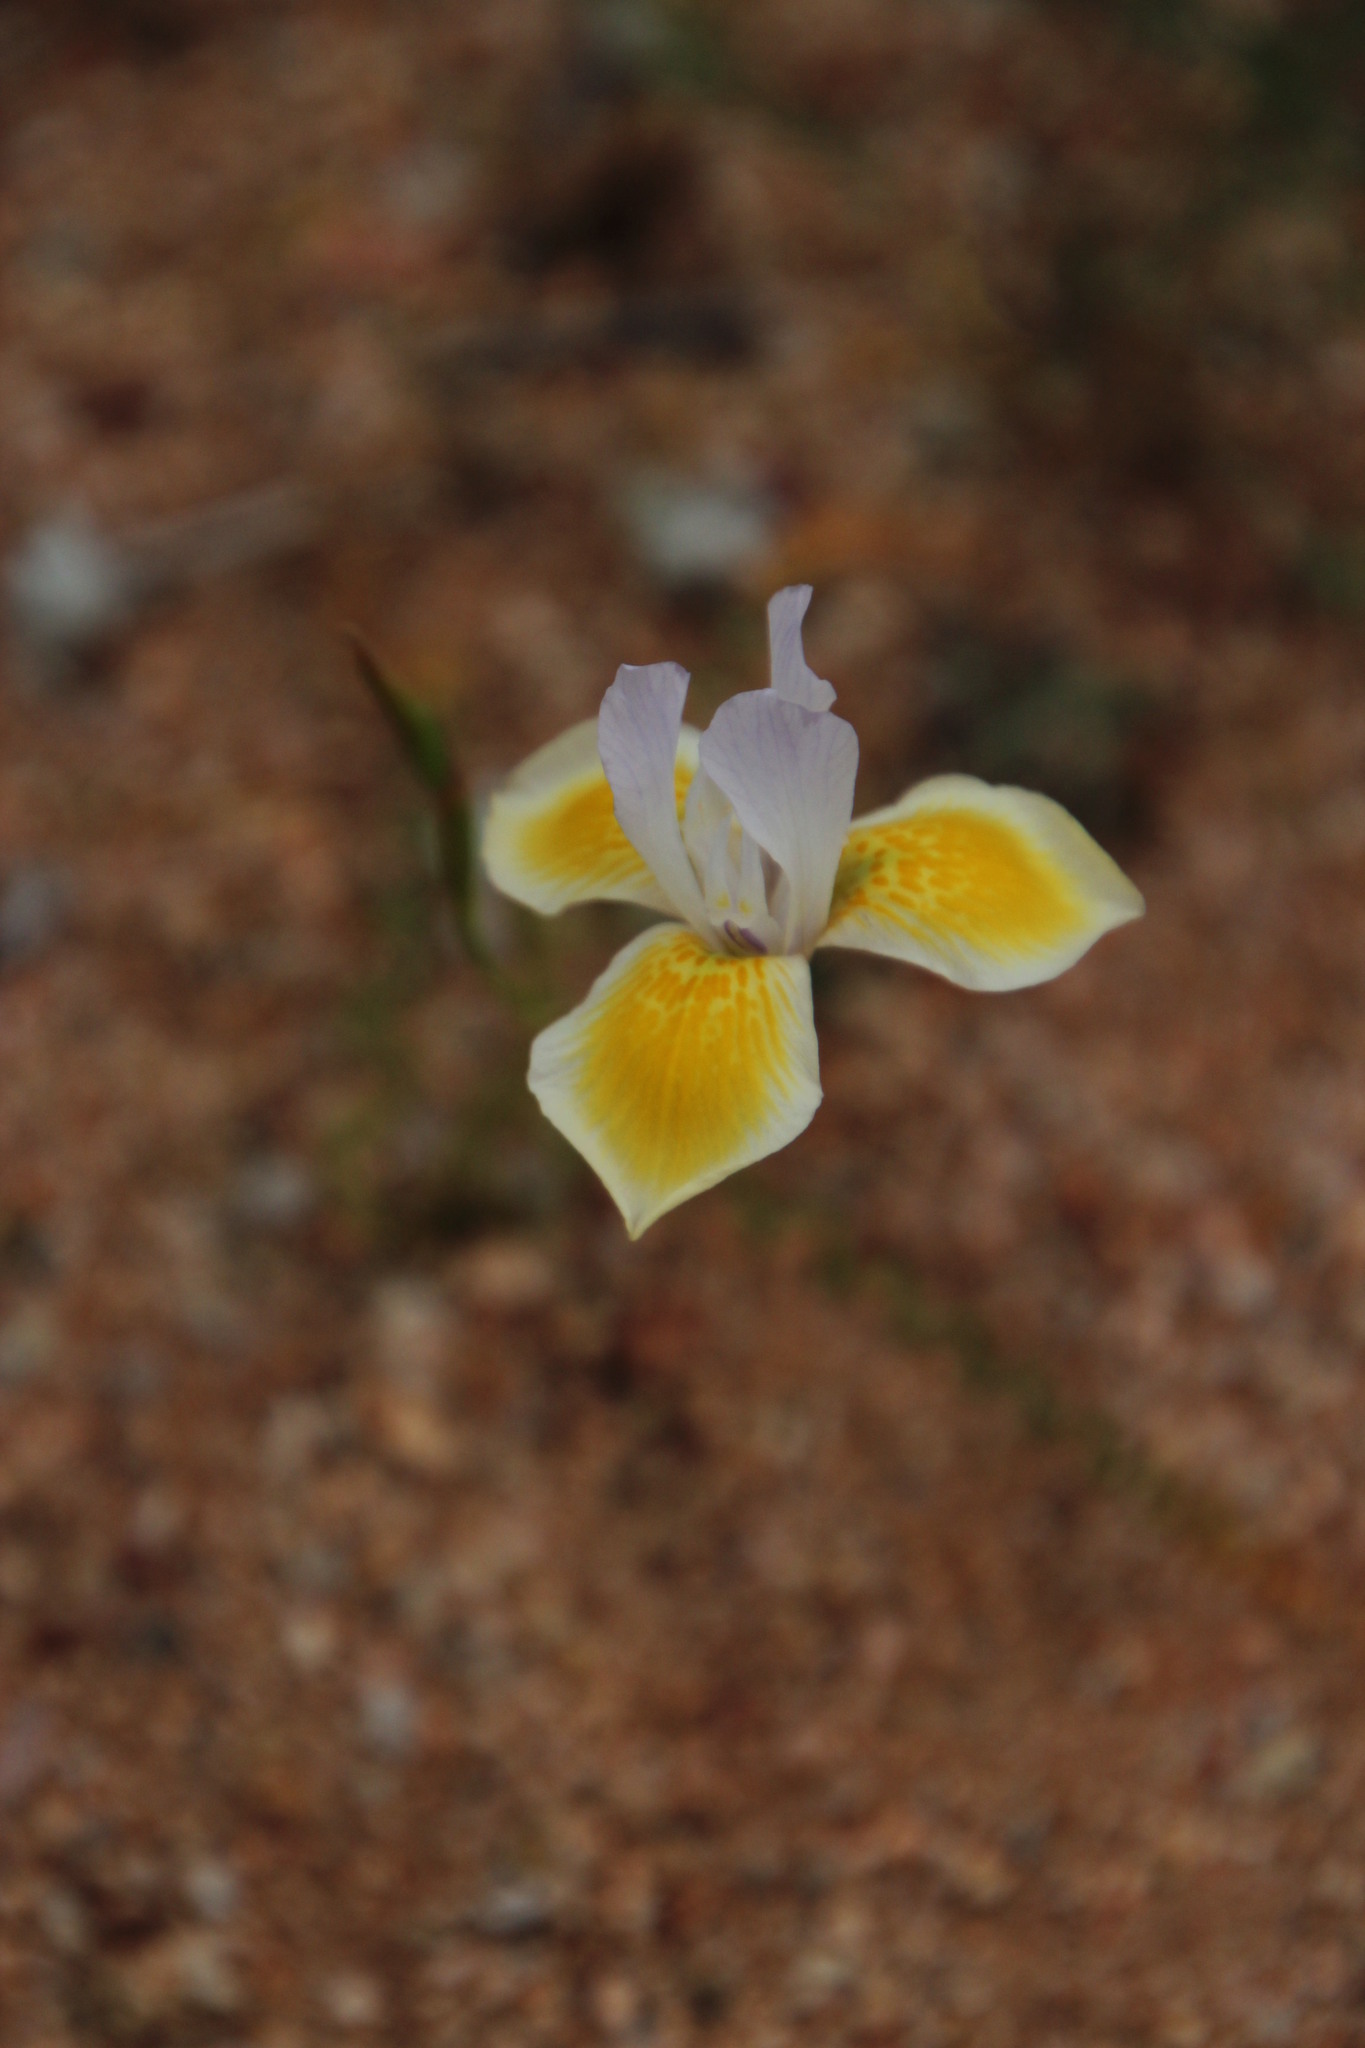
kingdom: Plantae
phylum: Tracheophyta
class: Liliopsida
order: Asparagales
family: Iridaceae
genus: Moraea
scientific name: Moraea serpentina
